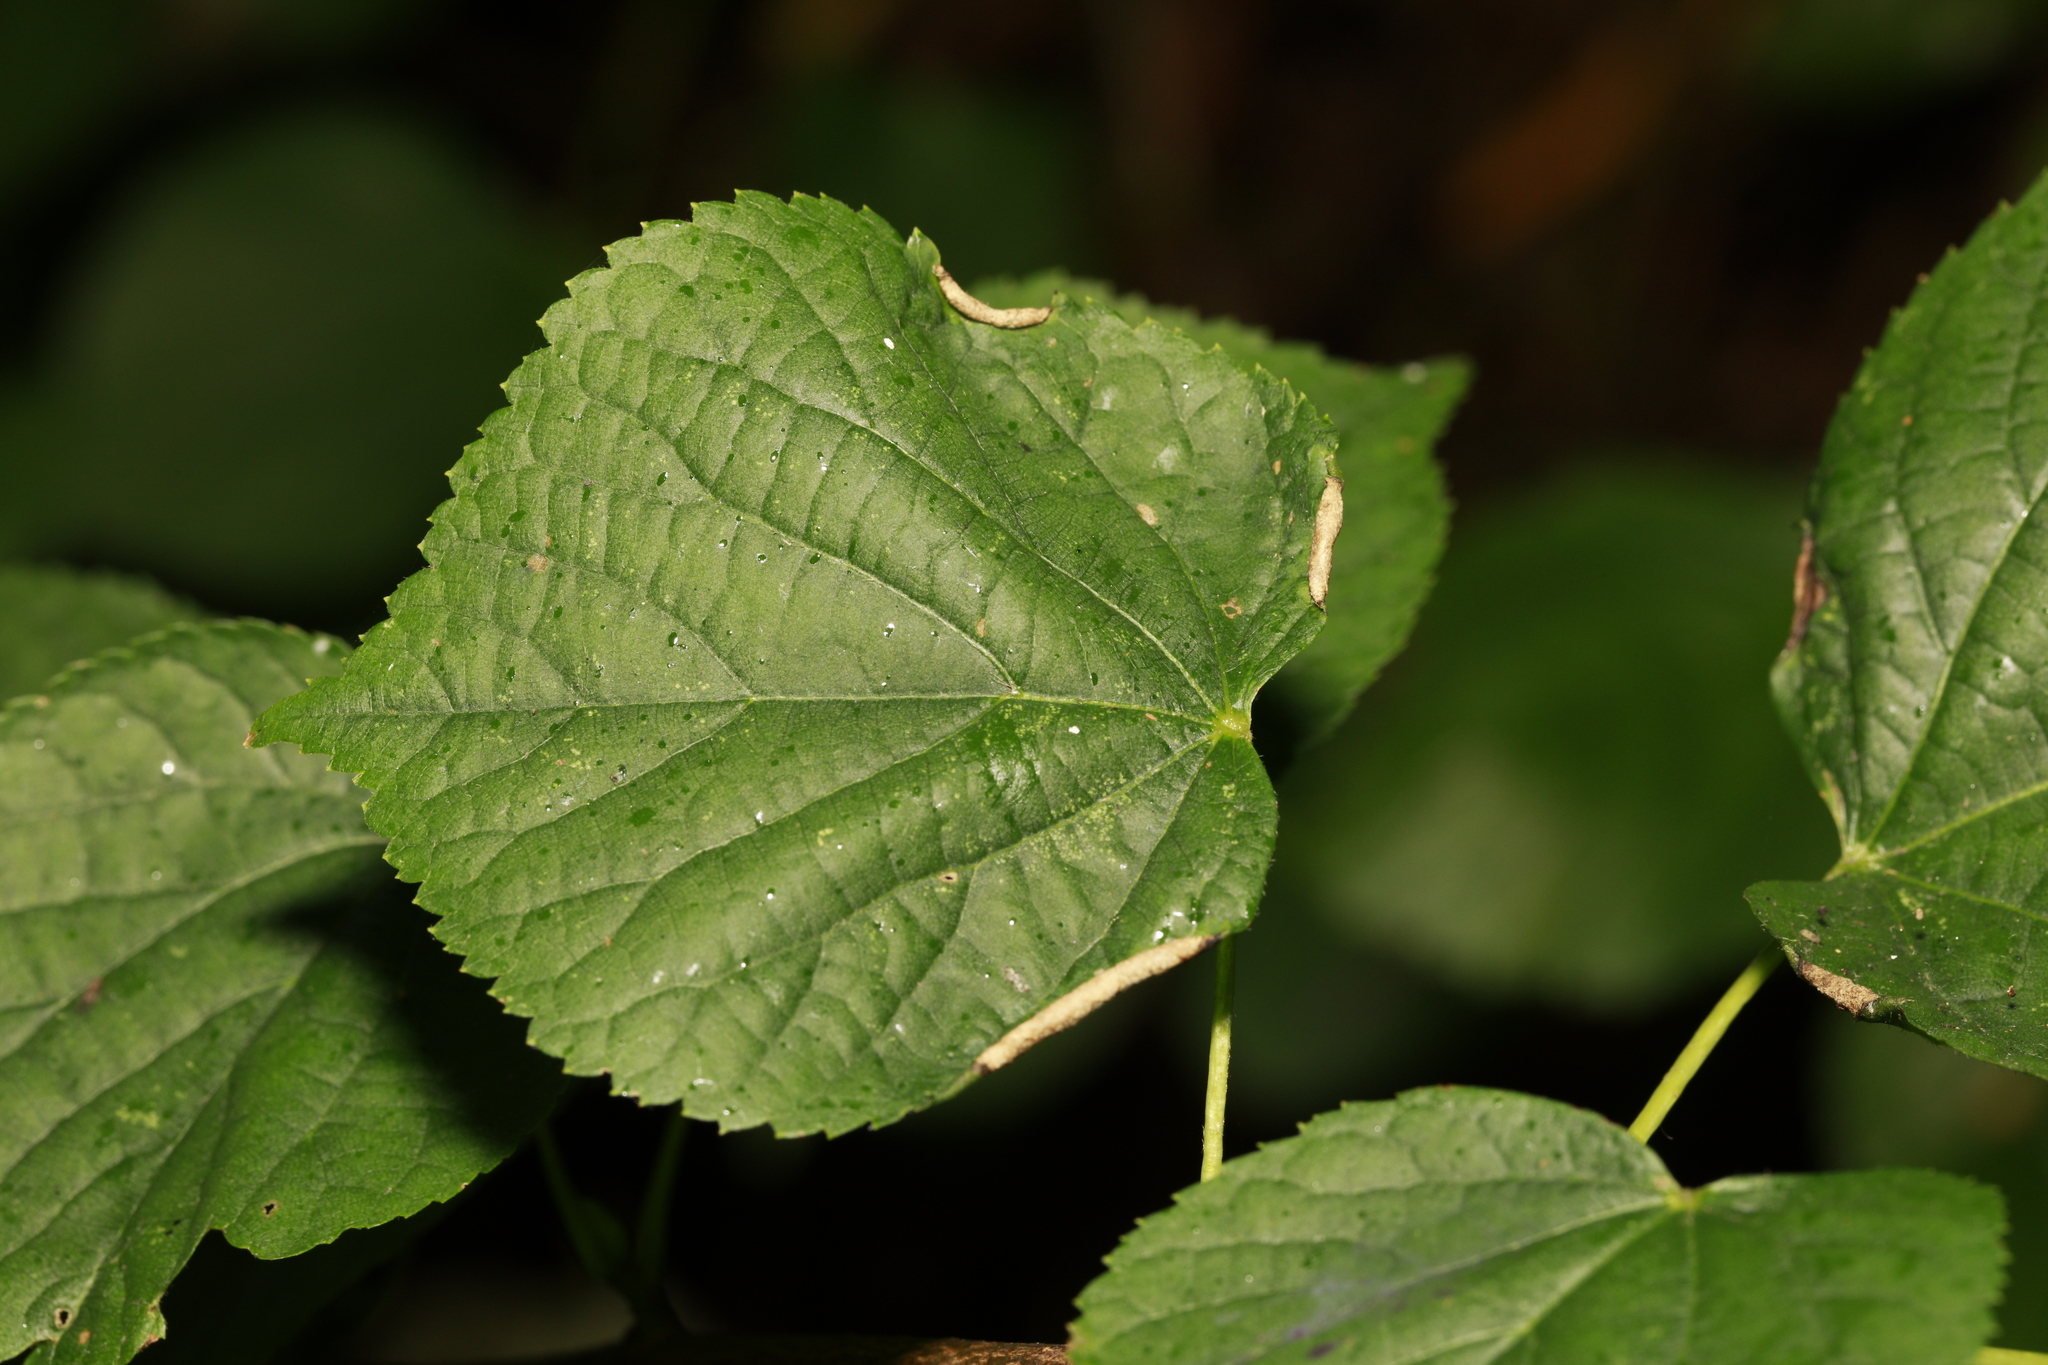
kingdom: Animalia
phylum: Arthropoda
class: Insecta
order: Diptera
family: Cecidomyiidae
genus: Dasineura
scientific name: Dasineura tiliae
